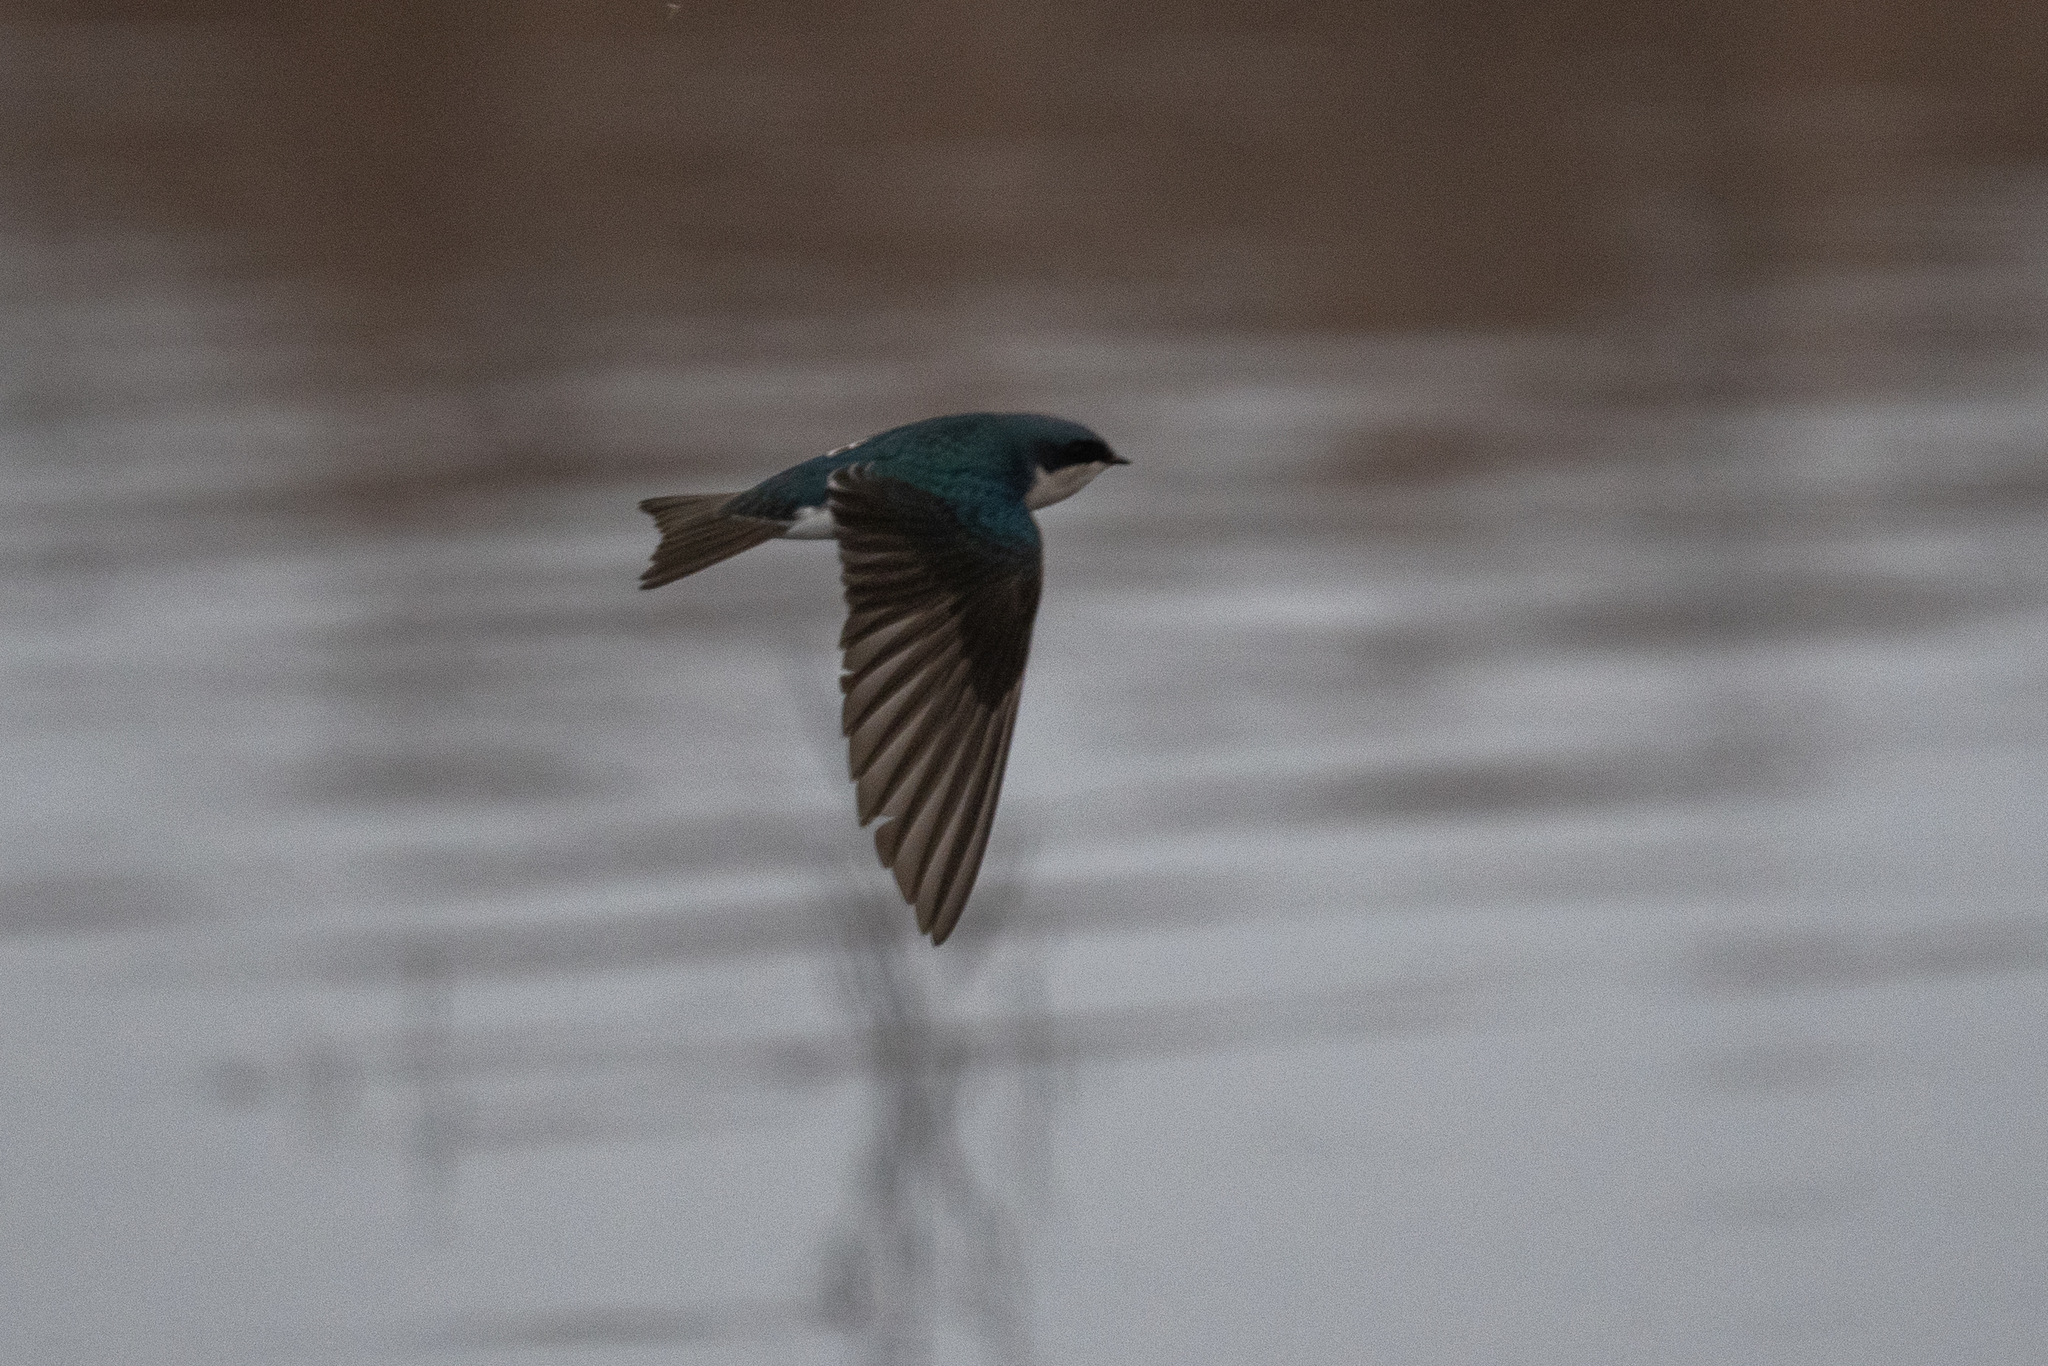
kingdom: Animalia
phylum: Chordata
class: Aves
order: Passeriformes
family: Hirundinidae
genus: Tachycineta
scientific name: Tachycineta bicolor
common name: Tree swallow
